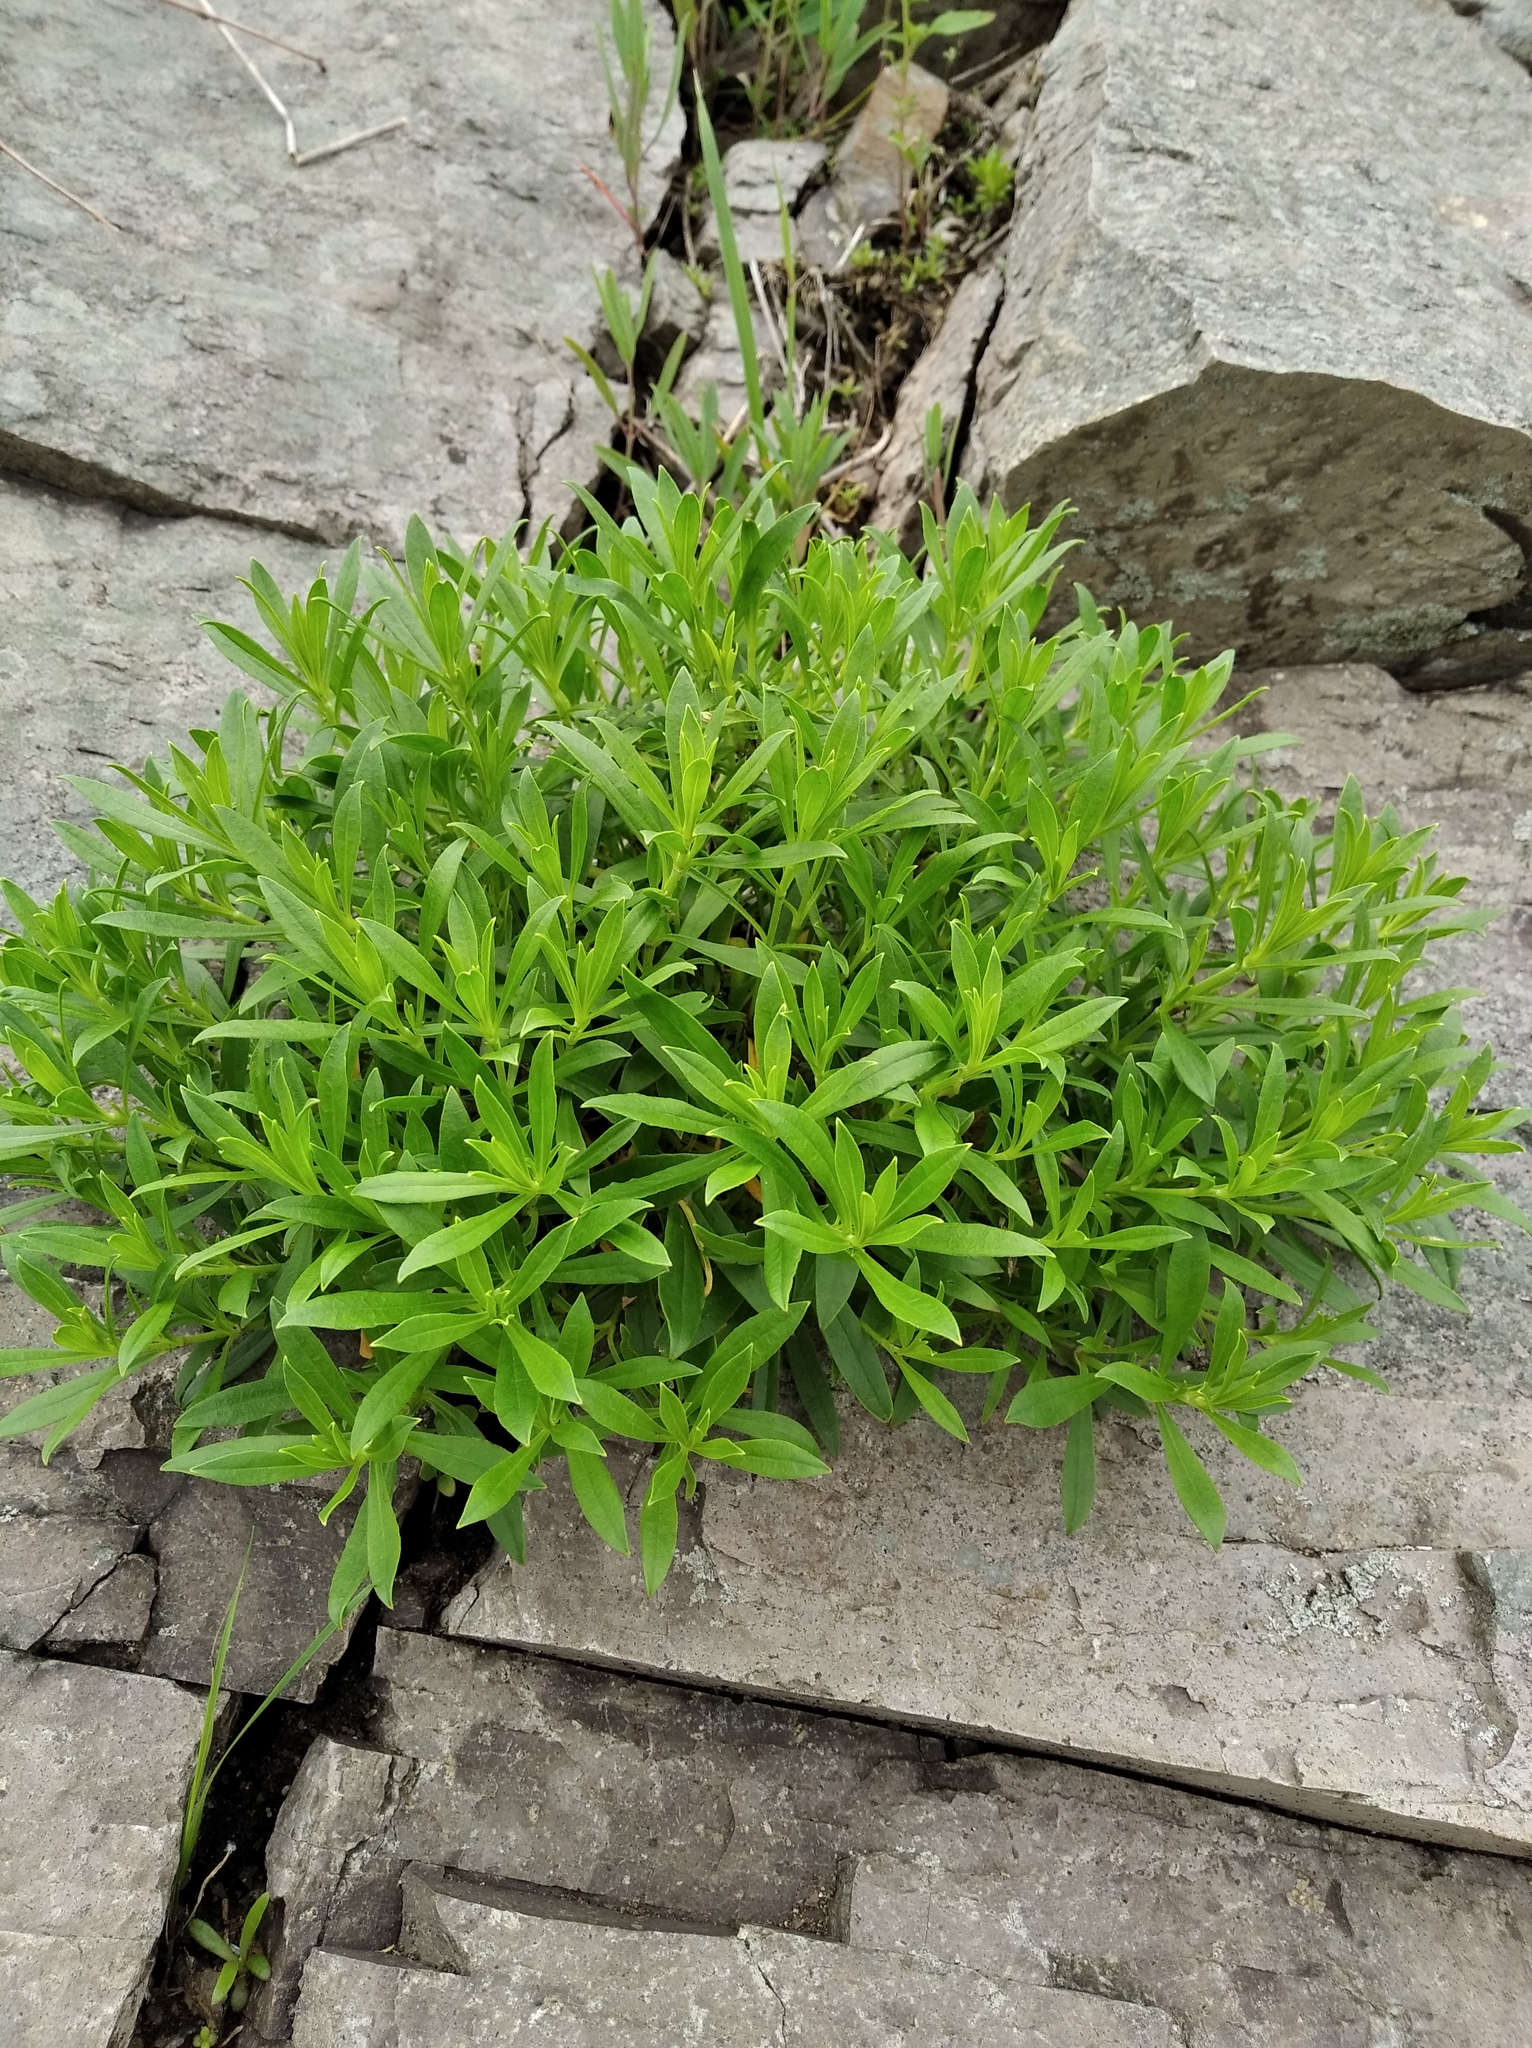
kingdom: Plantae
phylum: Tracheophyta
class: Magnoliopsida
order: Caryophyllales
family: Caryophyllaceae
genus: Silene
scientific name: Silene foliosa
